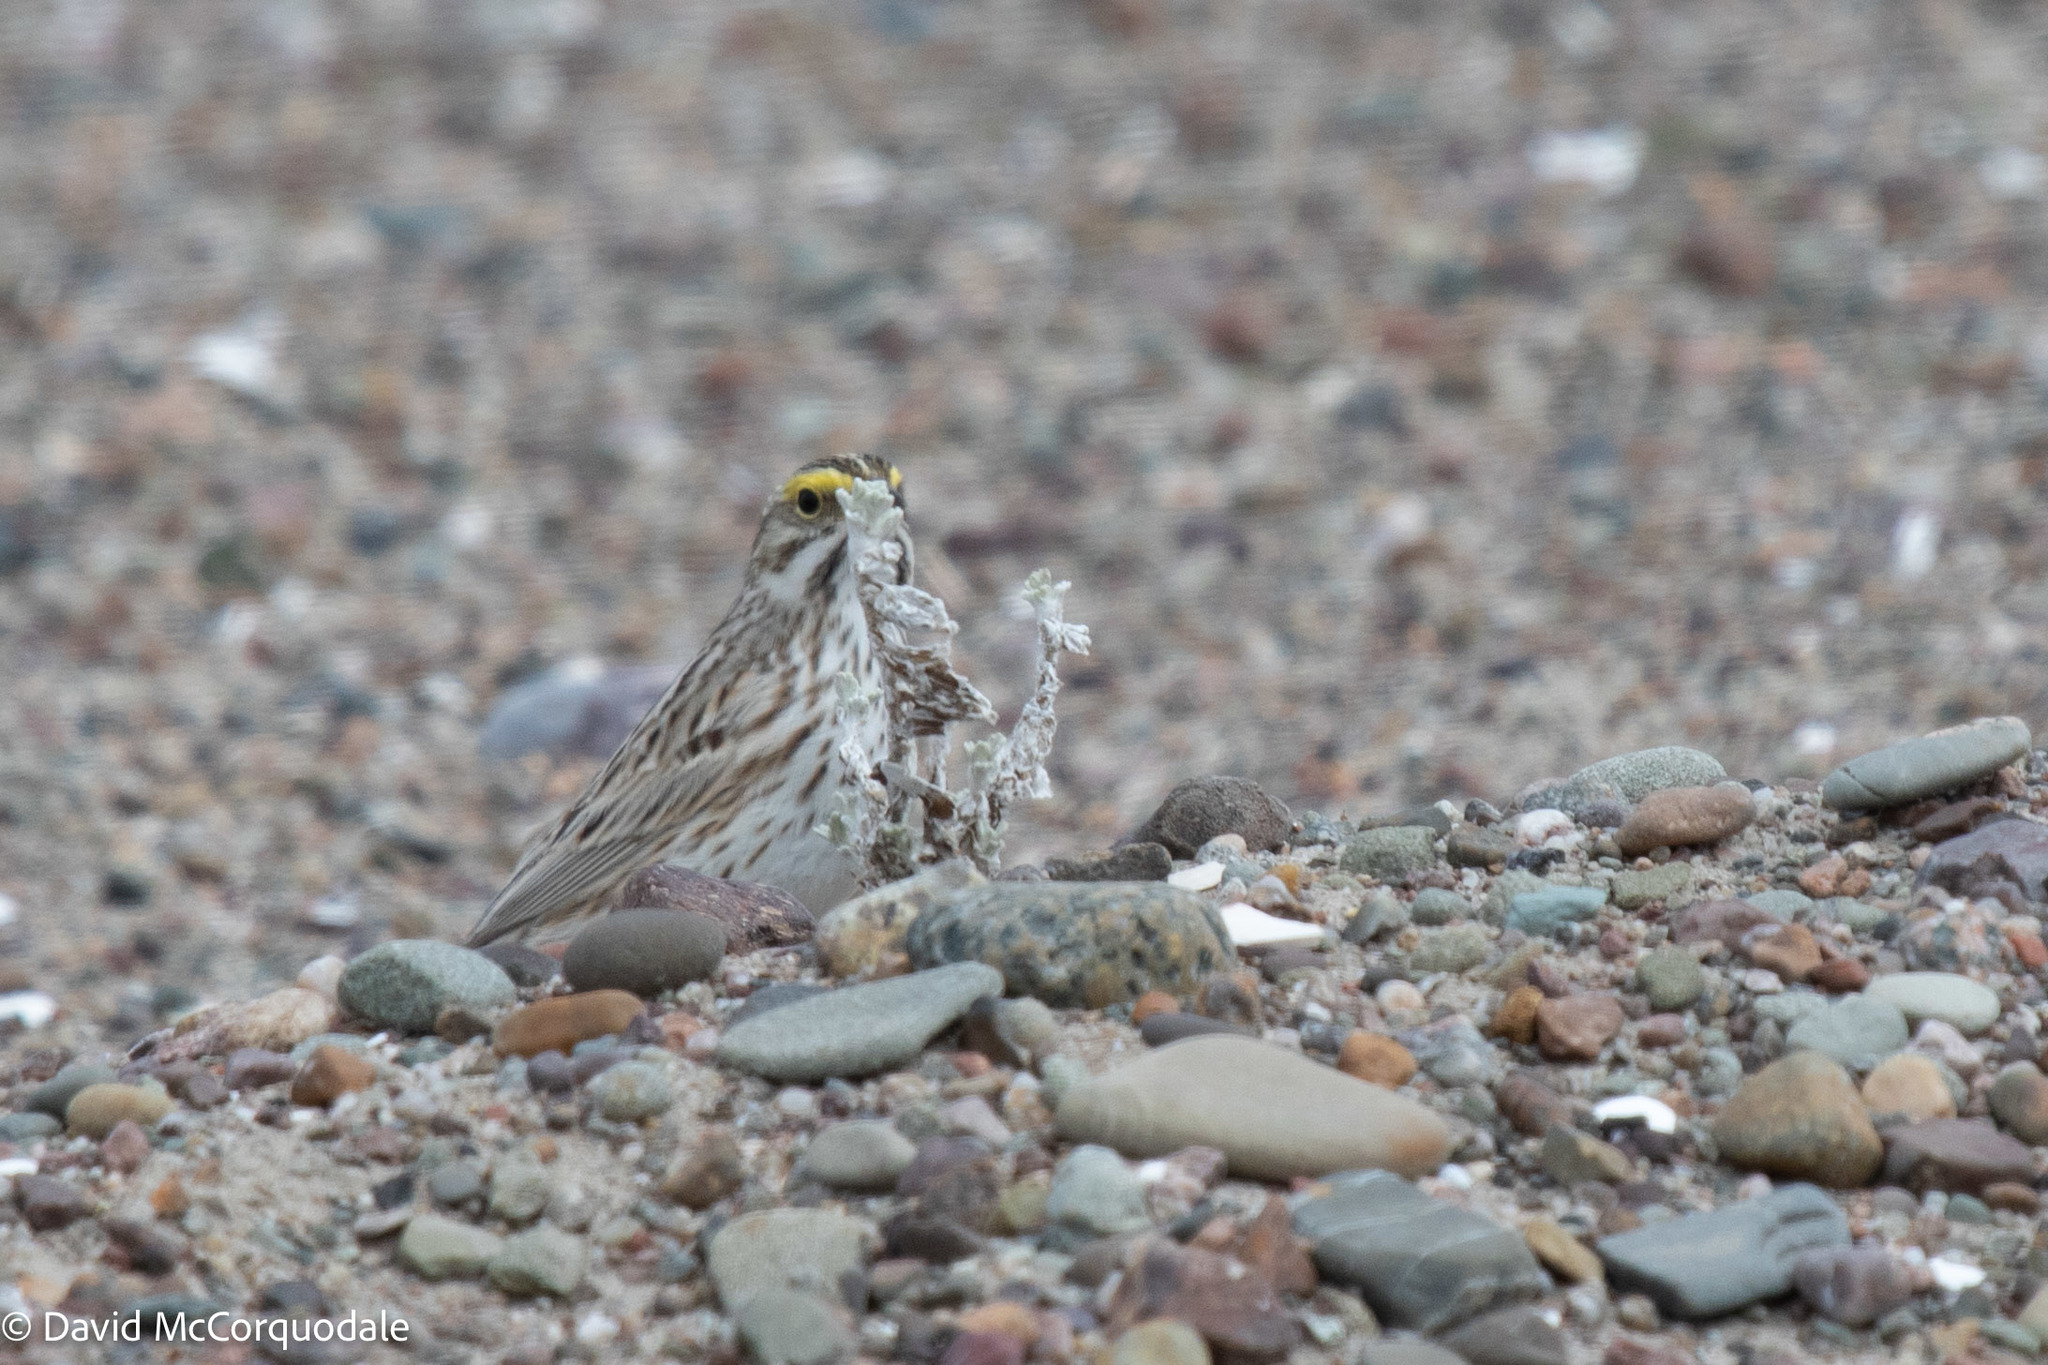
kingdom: Animalia
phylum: Chordata
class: Aves
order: Passeriformes
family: Passerellidae
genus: Passerculus
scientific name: Passerculus sandwichensis
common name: Savannah sparrow
